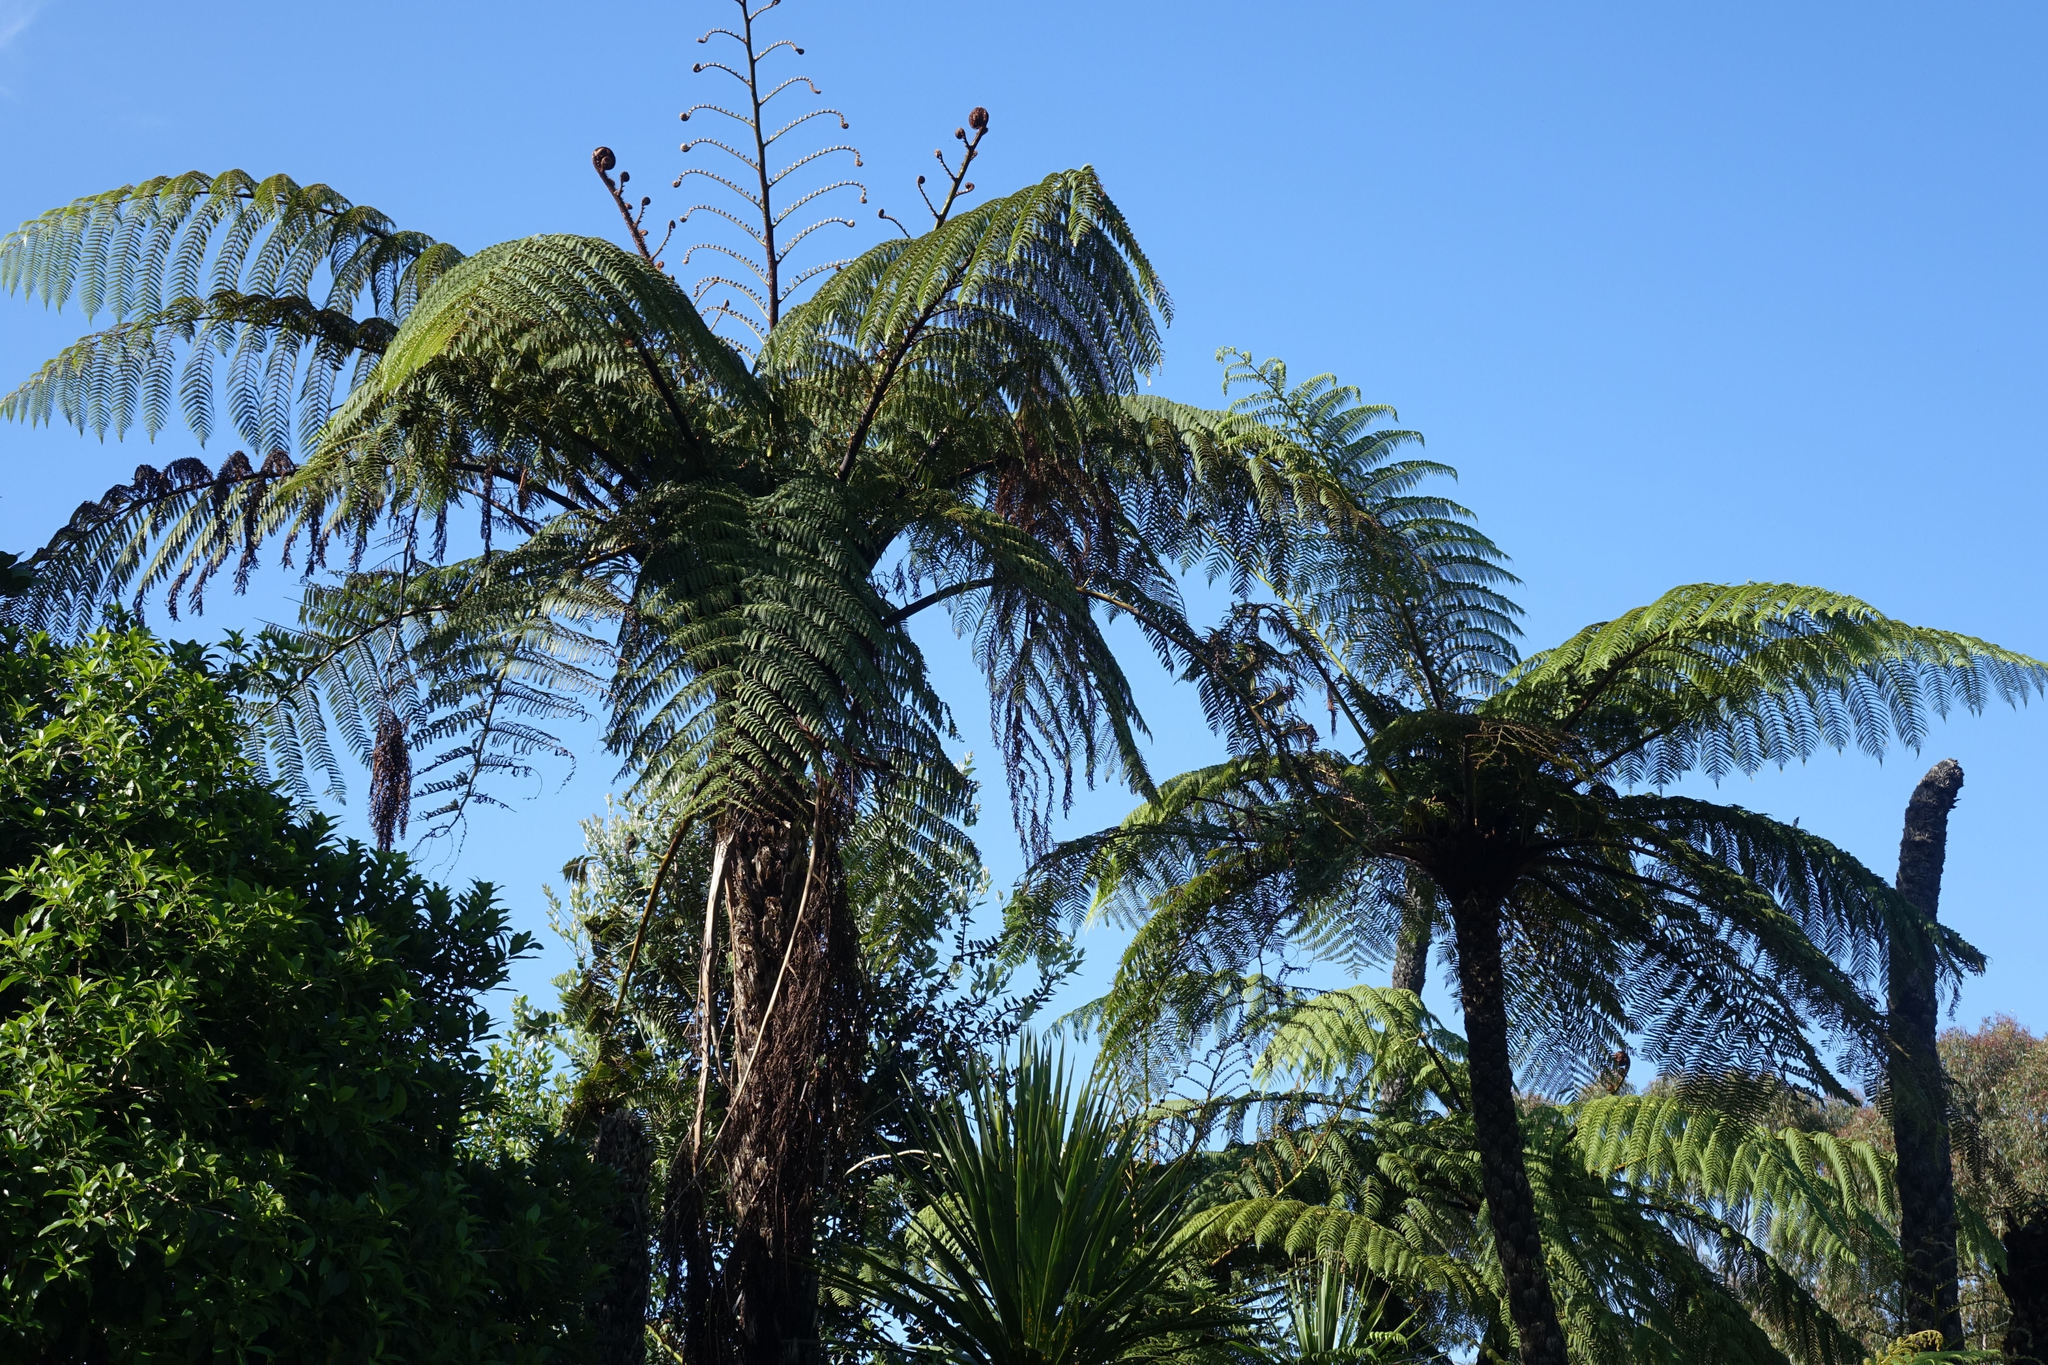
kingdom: Plantae
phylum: Tracheophyta
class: Polypodiopsida
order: Cyatheales
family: Cyatheaceae
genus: Sphaeropteris
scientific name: Sphaeropteris medullaris
